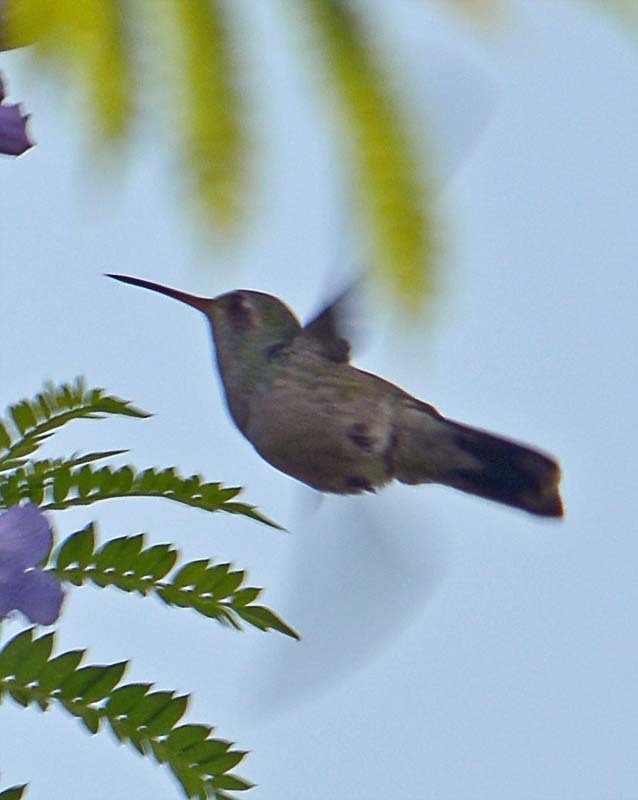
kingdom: Animalia
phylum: Chordata
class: Aves
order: Apodiformes
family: Trochilidae
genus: Cynanthus
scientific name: Cynanthus latirostris
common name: Broad-billed hummingbird
